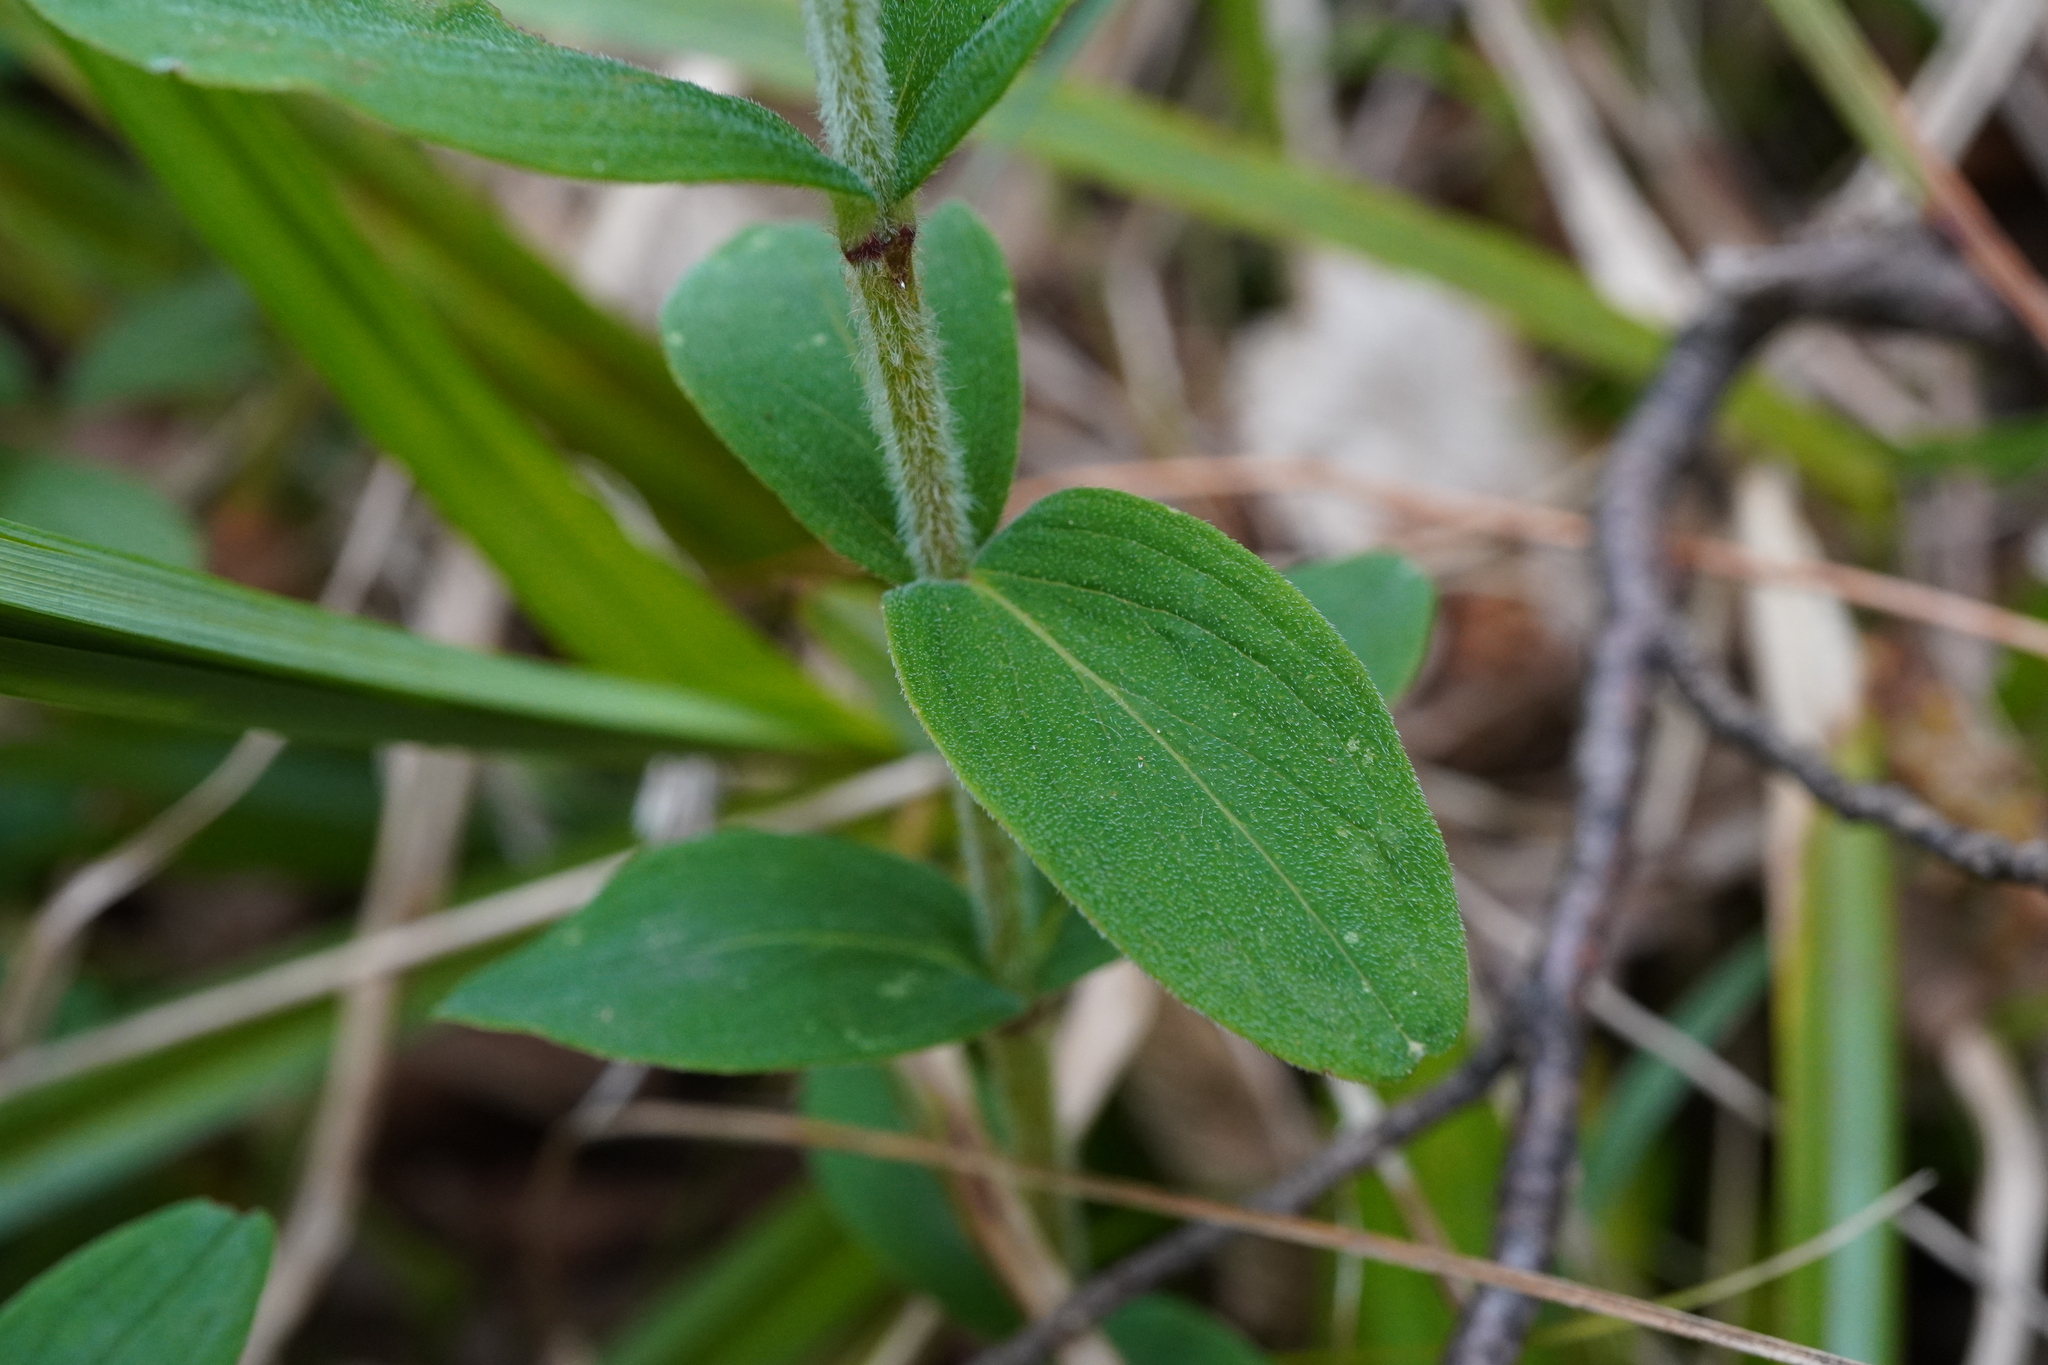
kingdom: Plantae
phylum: Tracheophyta
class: Magnoliopsida
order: Malpighiales
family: Hypericaceae
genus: Hypericum
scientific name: Hypericum hirsutum
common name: Hairy st. john's-wort
